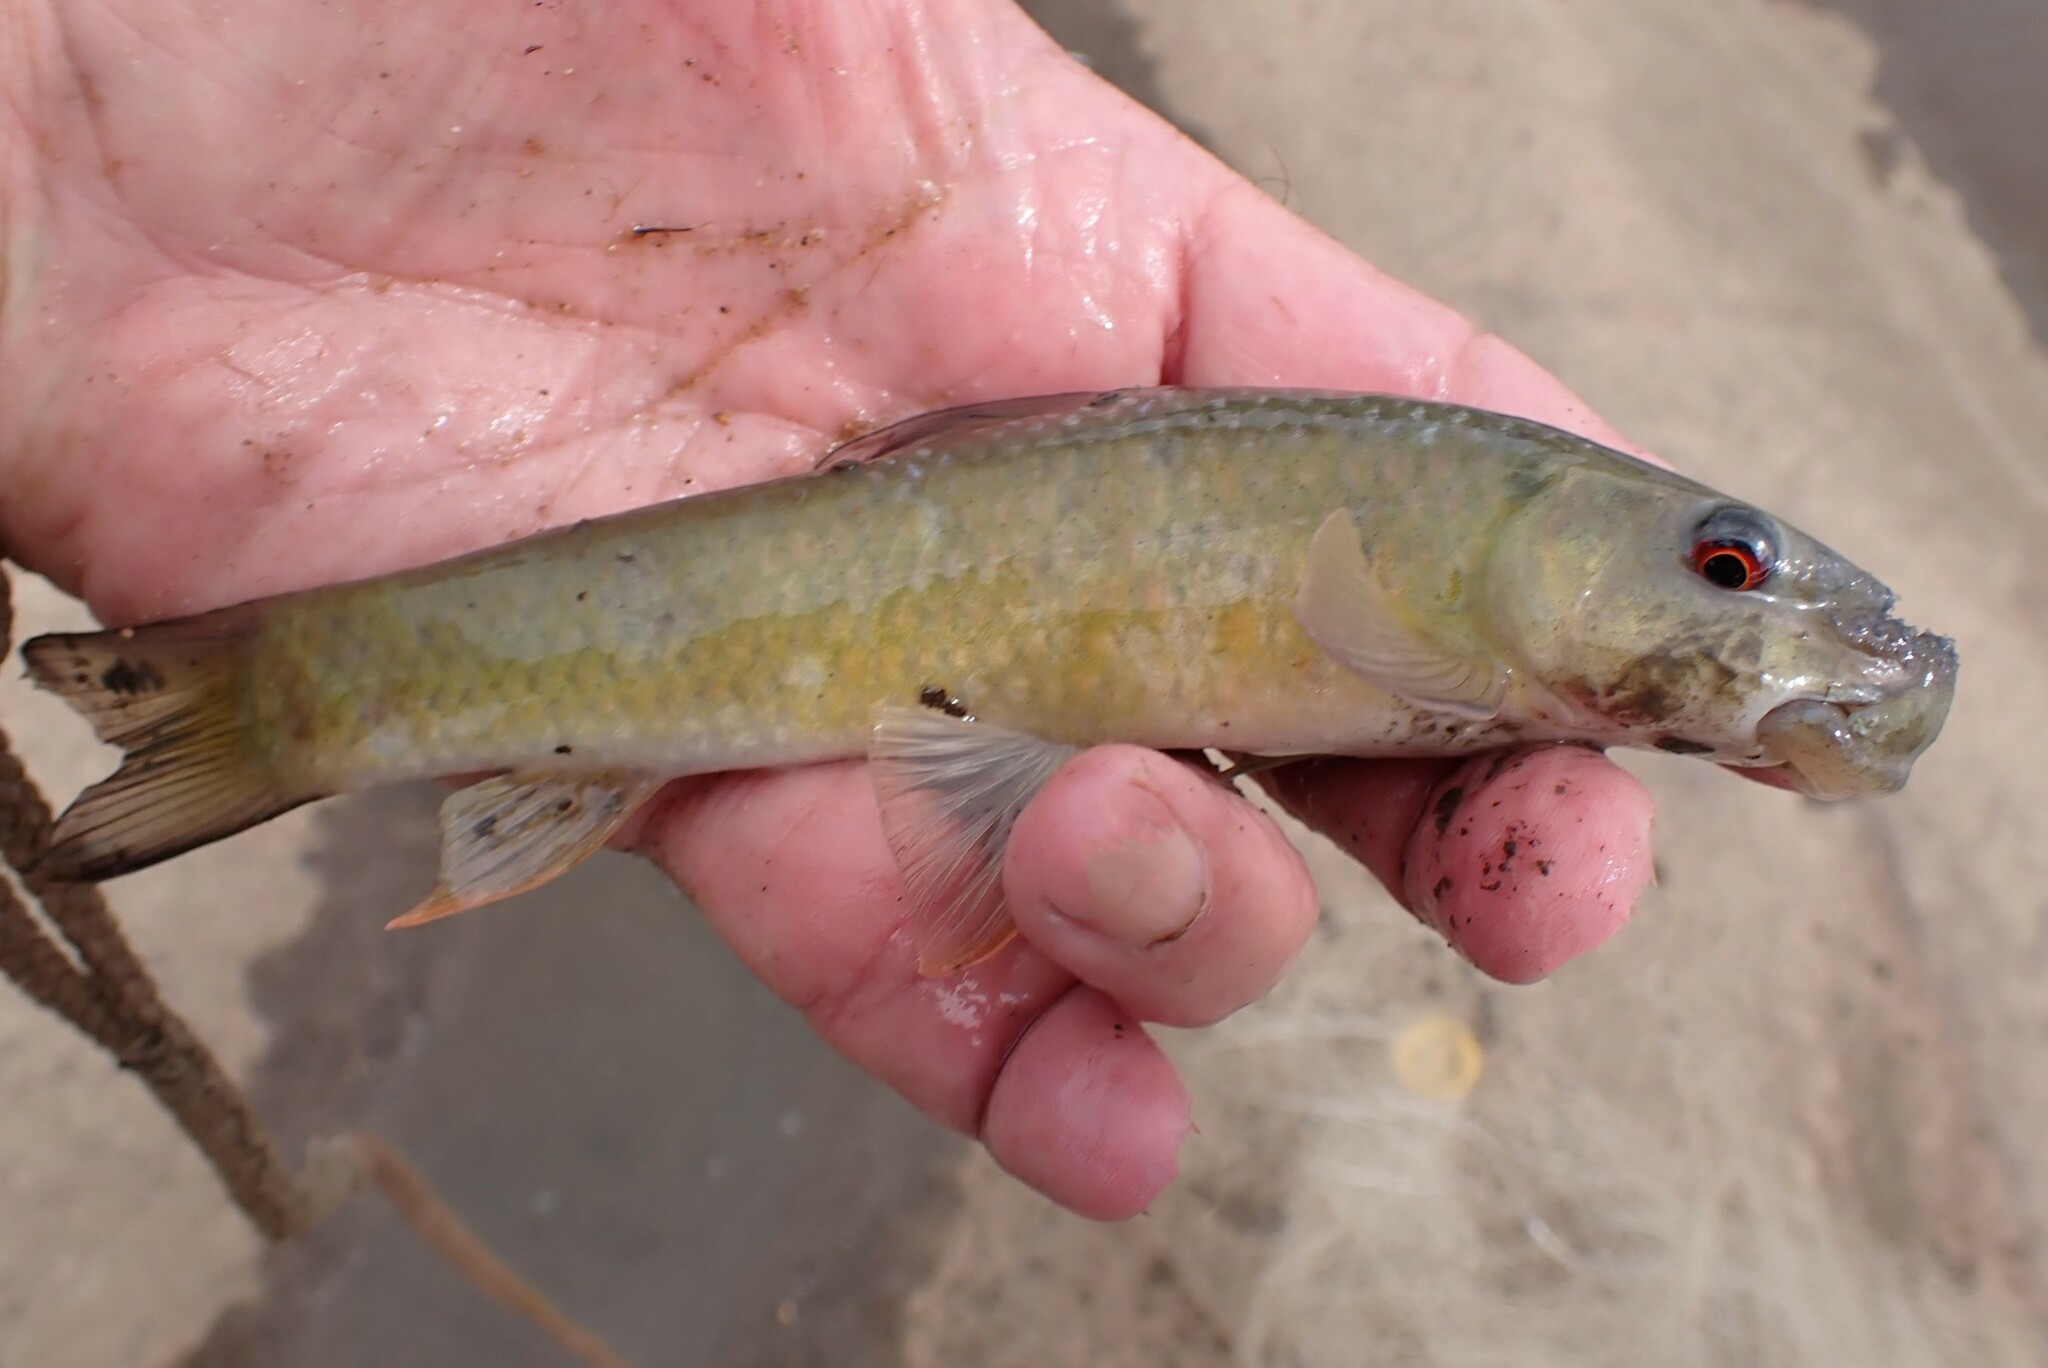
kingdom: Animalia
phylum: Chordata
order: Cypriniformes
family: Cyprinidae
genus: Labeo
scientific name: Labeo cylindricus
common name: Redeye labeo
